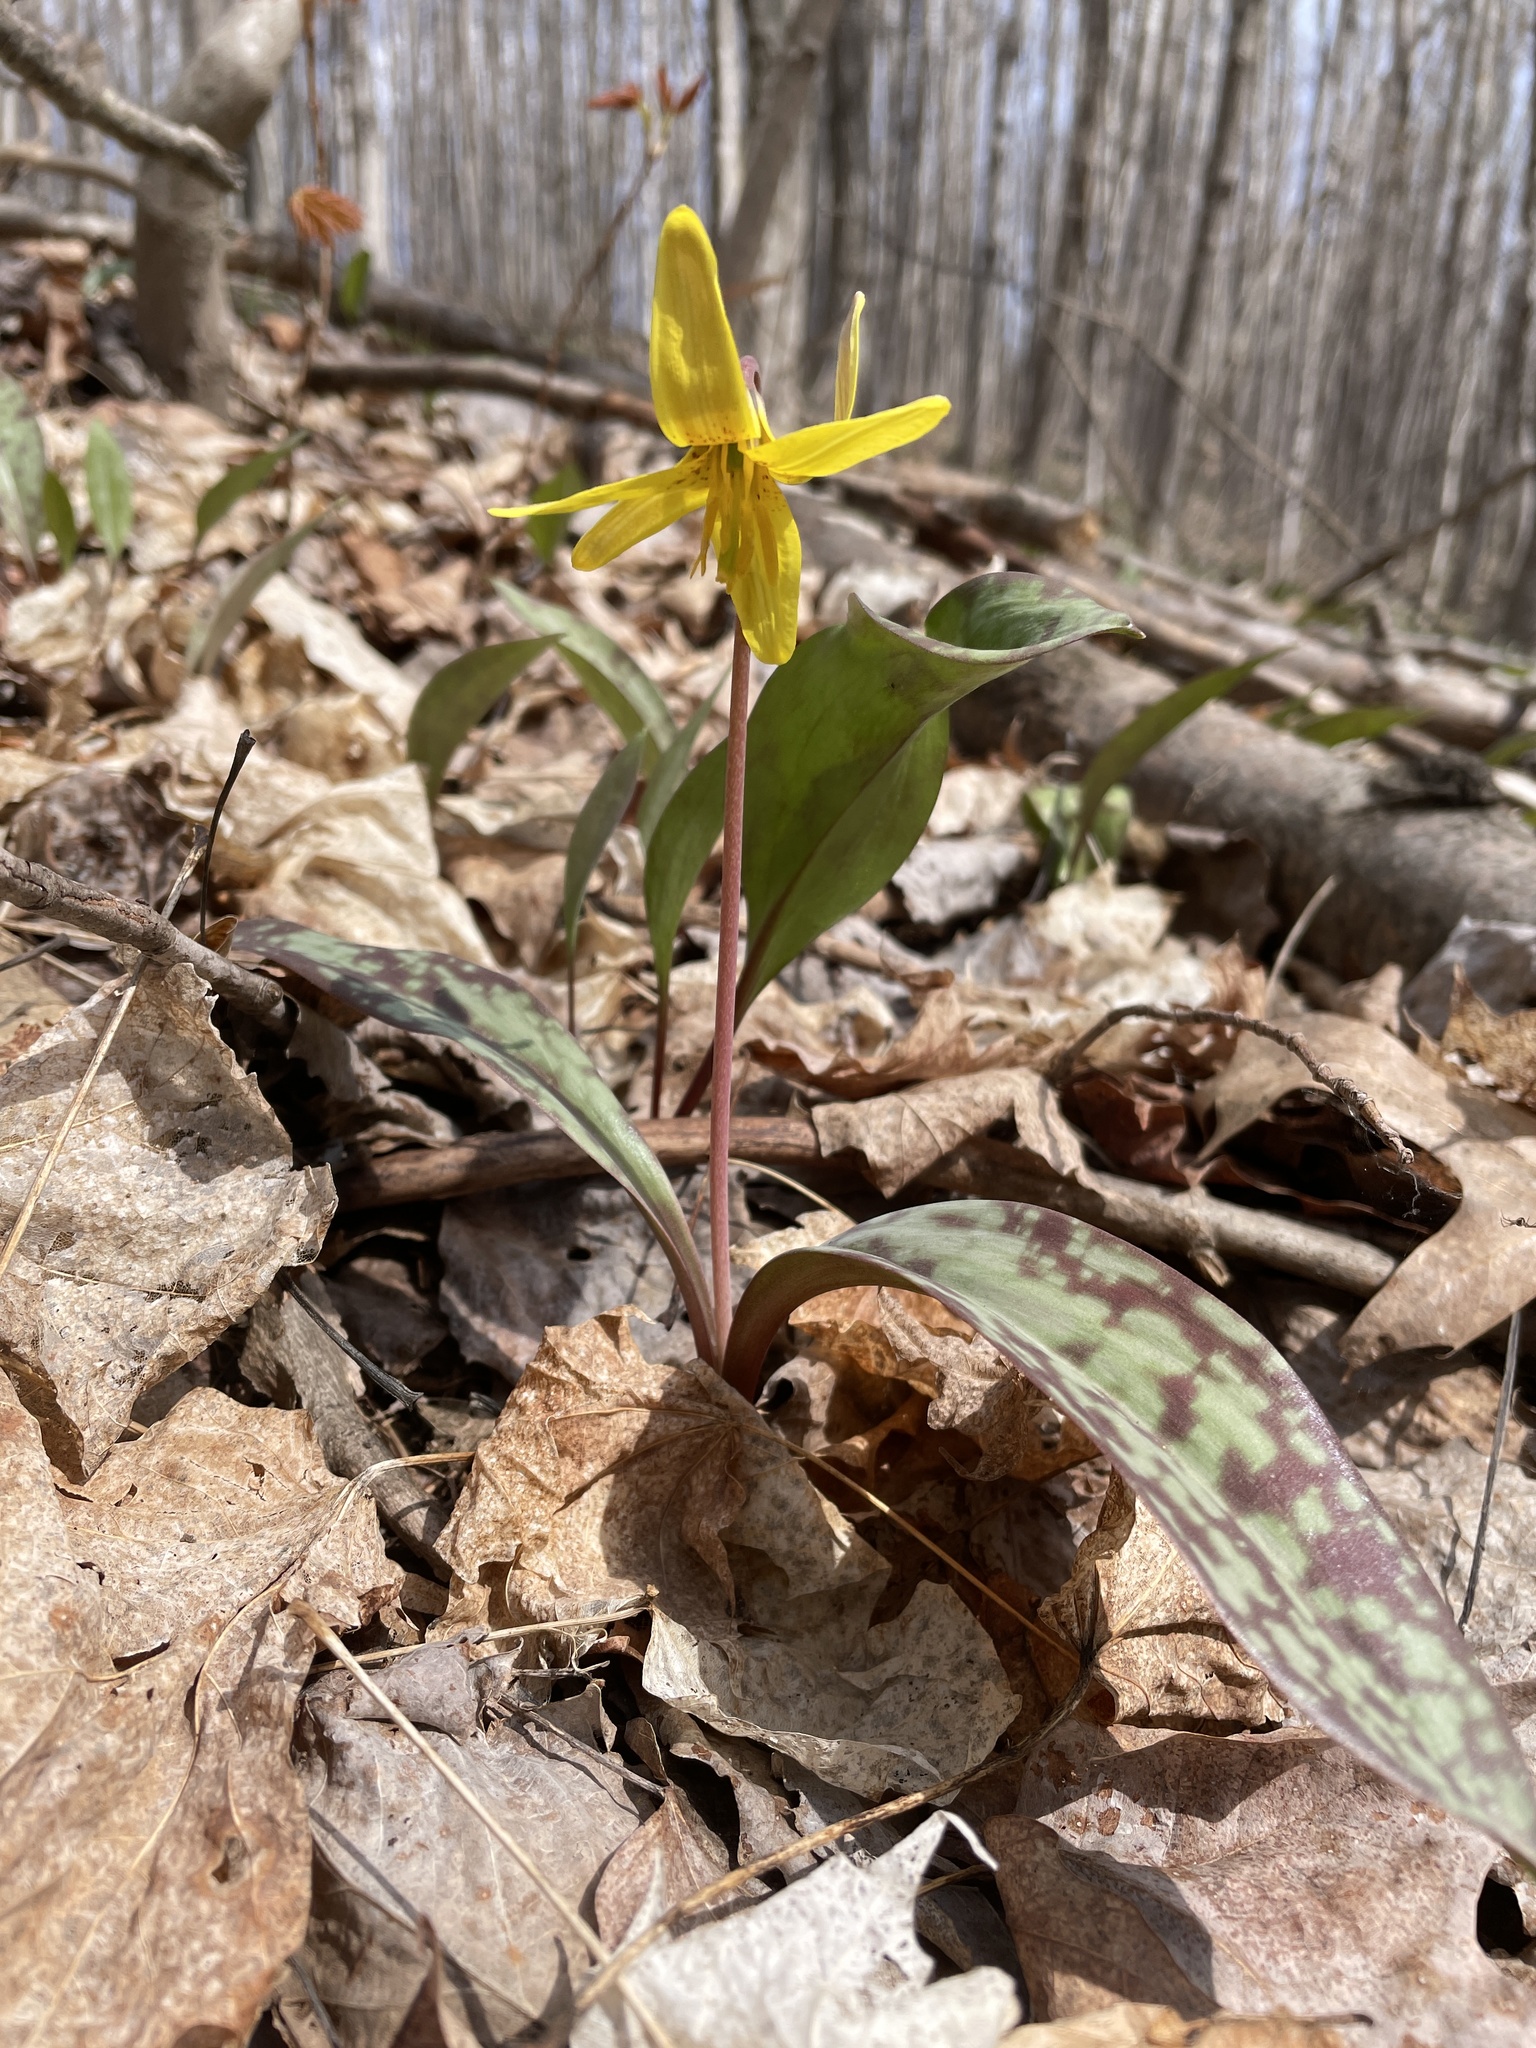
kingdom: Plantae
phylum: Tracheophyta
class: Liliopsida
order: Liliales
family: Liliaceae
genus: Erythronium
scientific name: Erythronium americanum
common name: Yellow adder's-tongue
